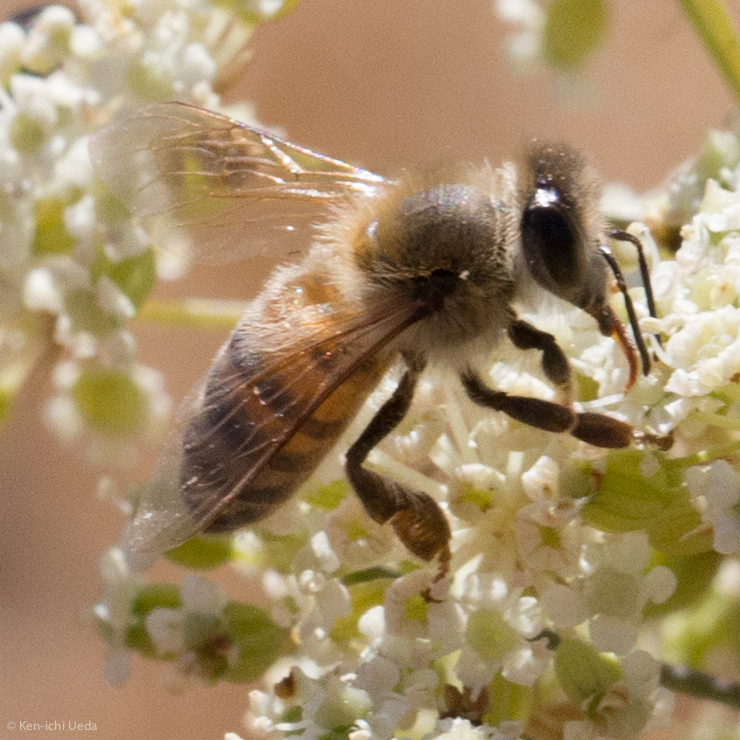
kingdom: Animalia
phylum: Arthropoda
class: Insecta
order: Hymenoptera
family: Apidae
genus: Apis
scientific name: Apis mellifera
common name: Honey bee
